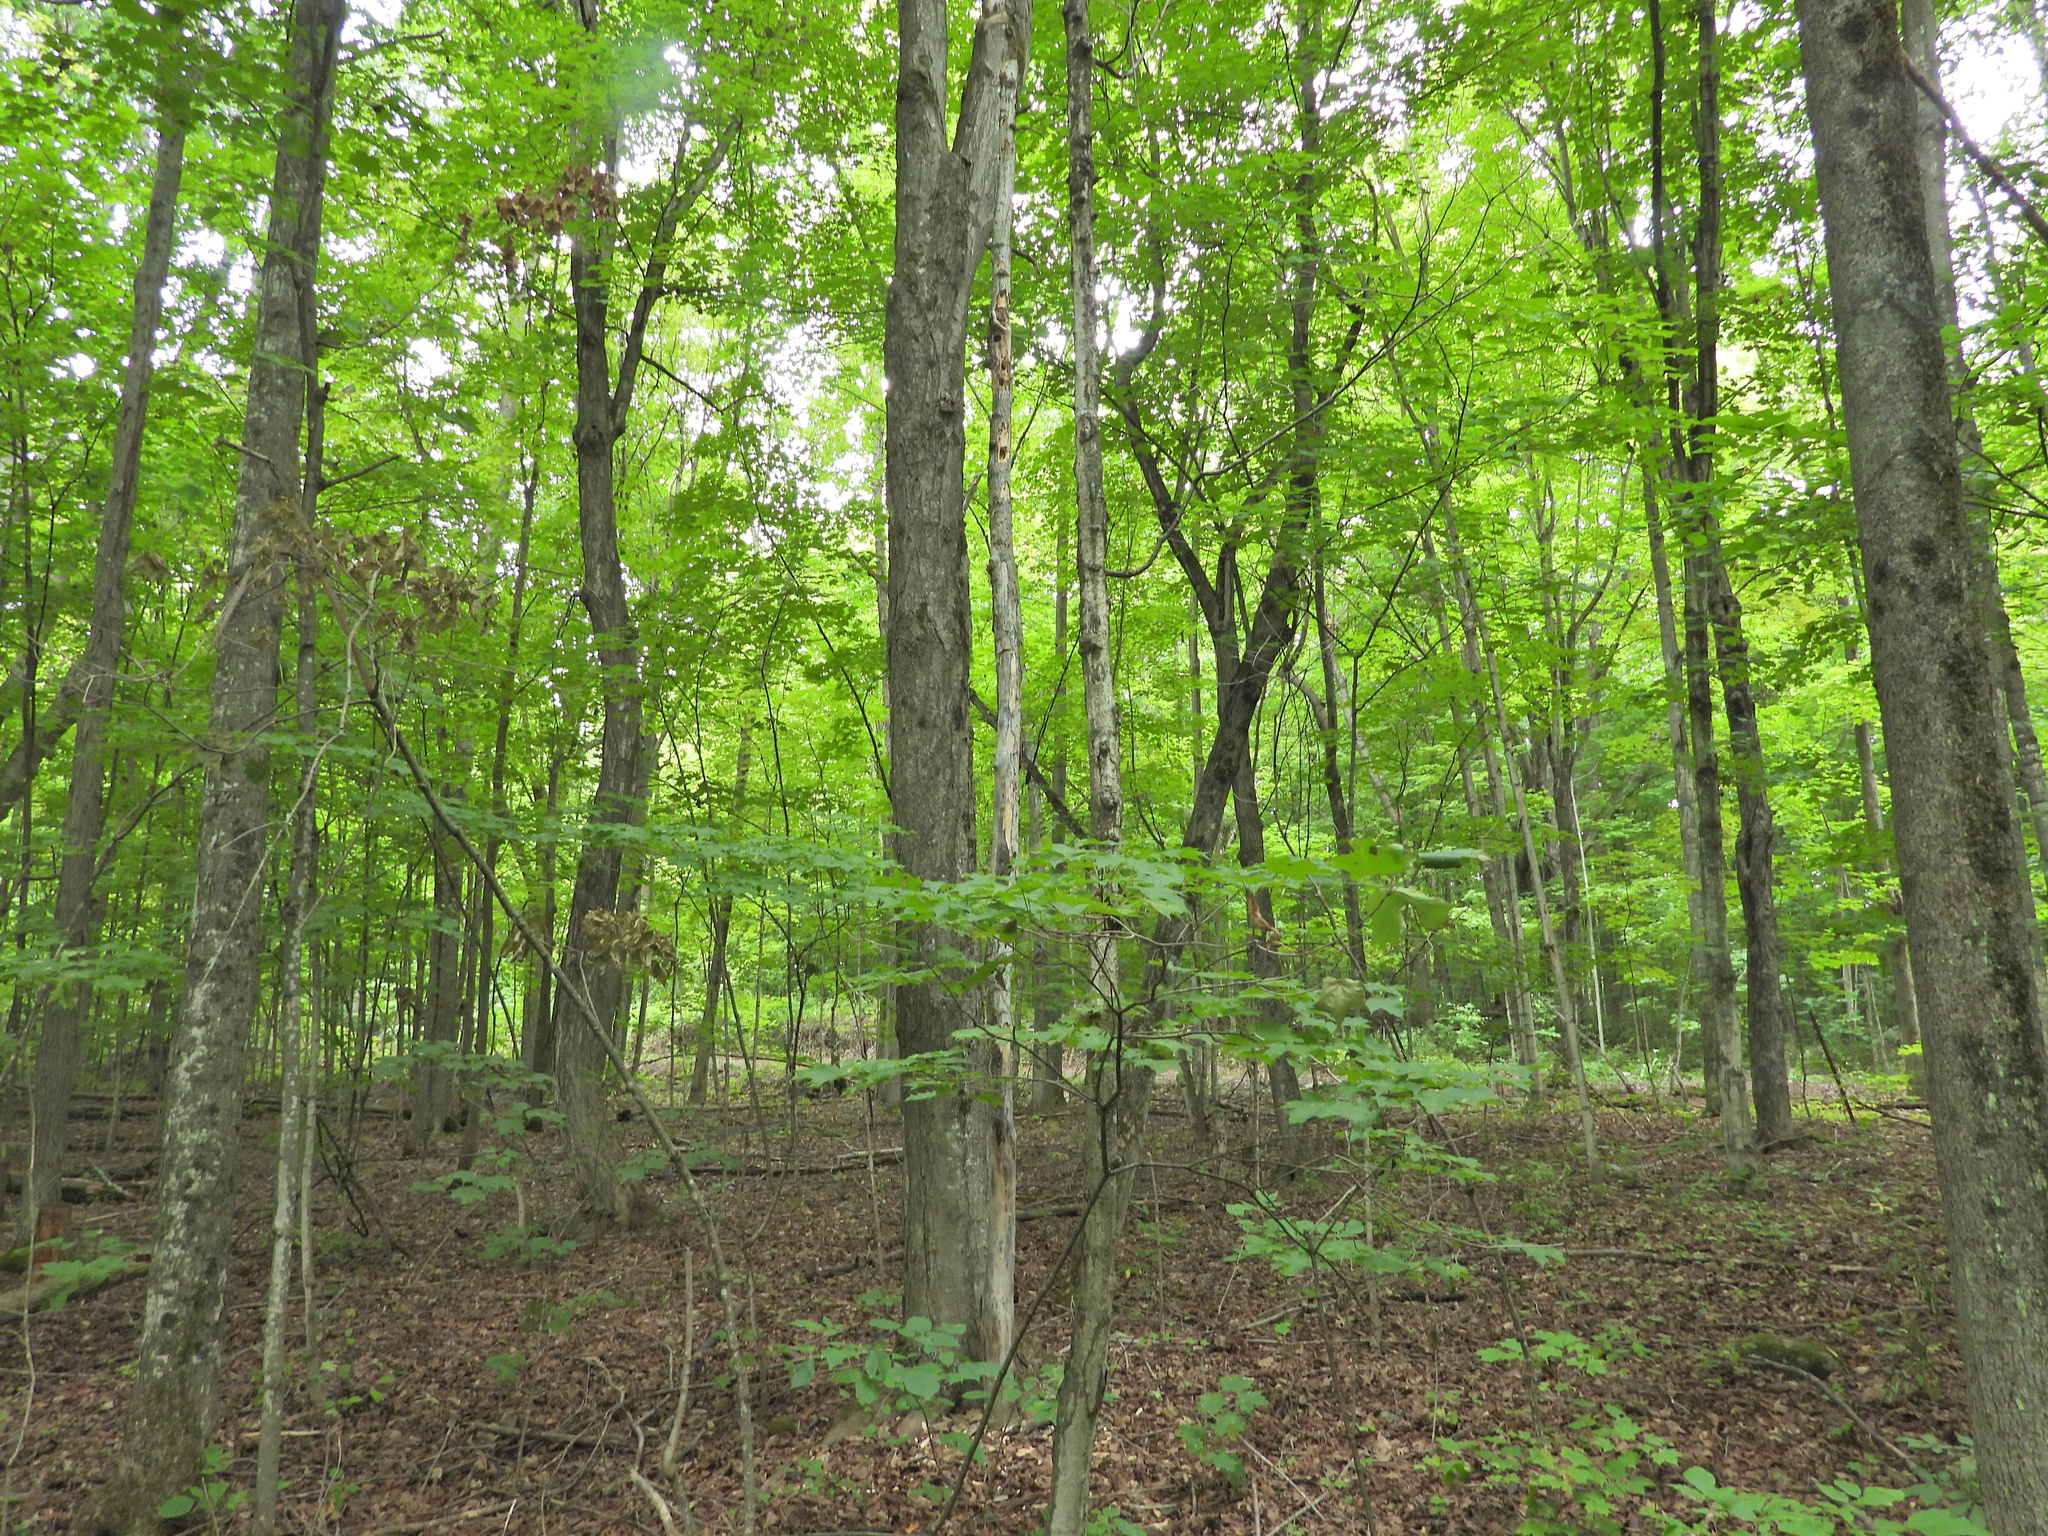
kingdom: Animalia
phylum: Chordata
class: Aves
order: Passeriformes
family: Fringillidae
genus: Spinus
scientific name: Spinus tristis
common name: American goldfinch
